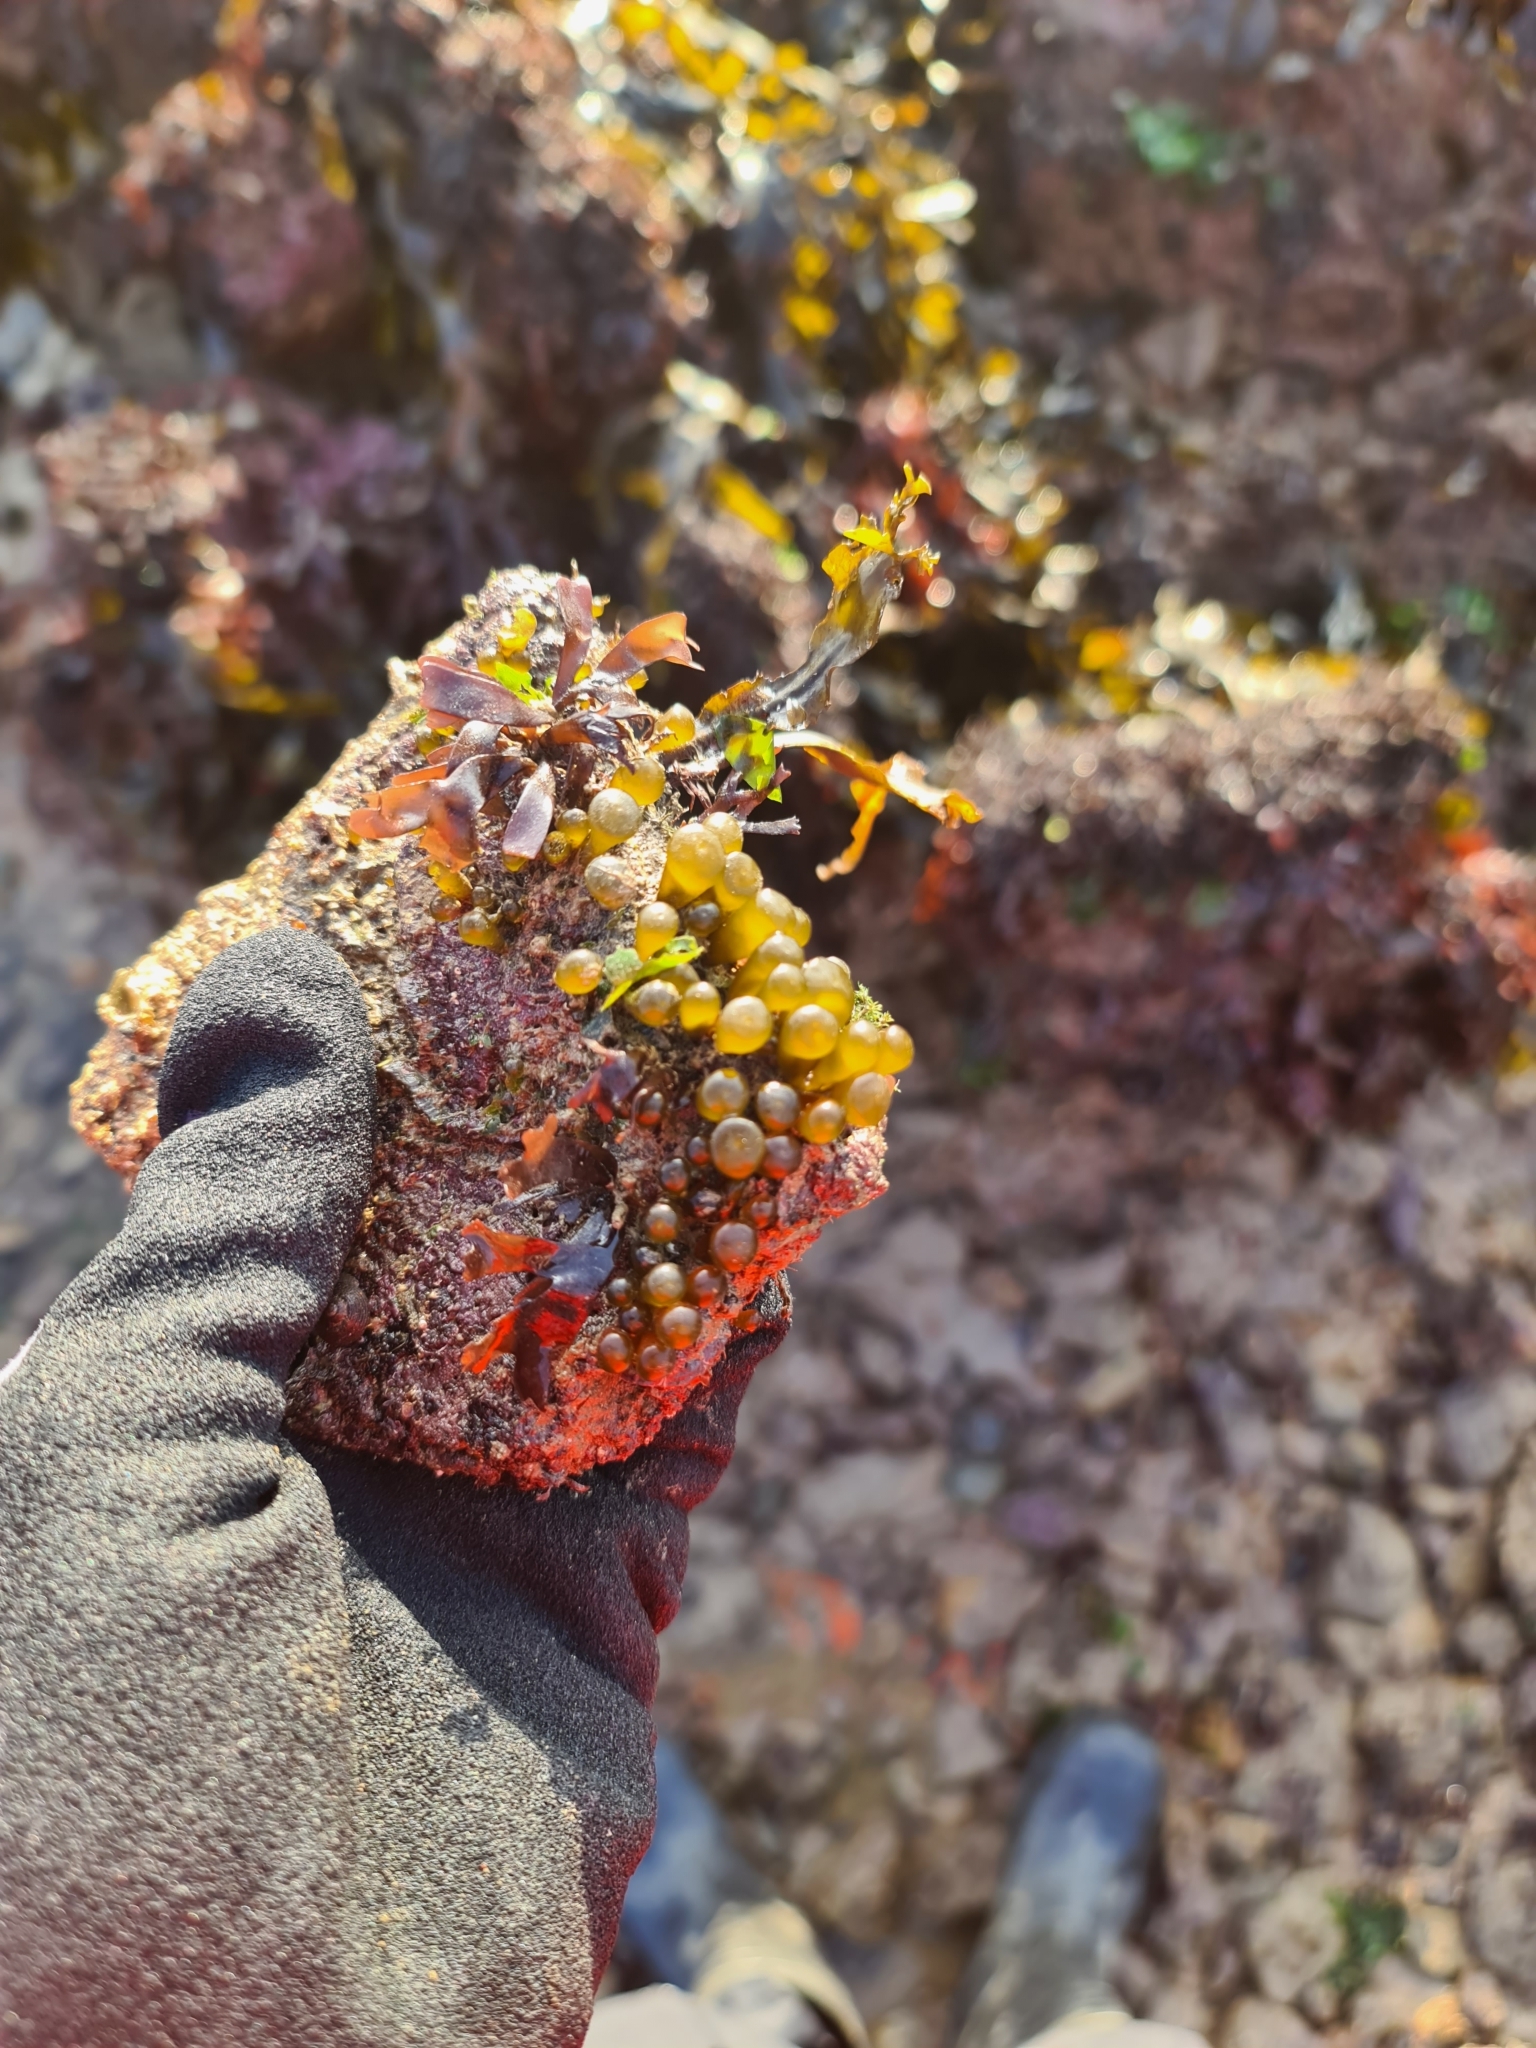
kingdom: Chromista
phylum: Ochrophyta
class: Phaeophyceae
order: Fucales
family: Himanthaliaceae
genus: Himanthalia
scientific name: Himanthalia elongata
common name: Sea-thong
